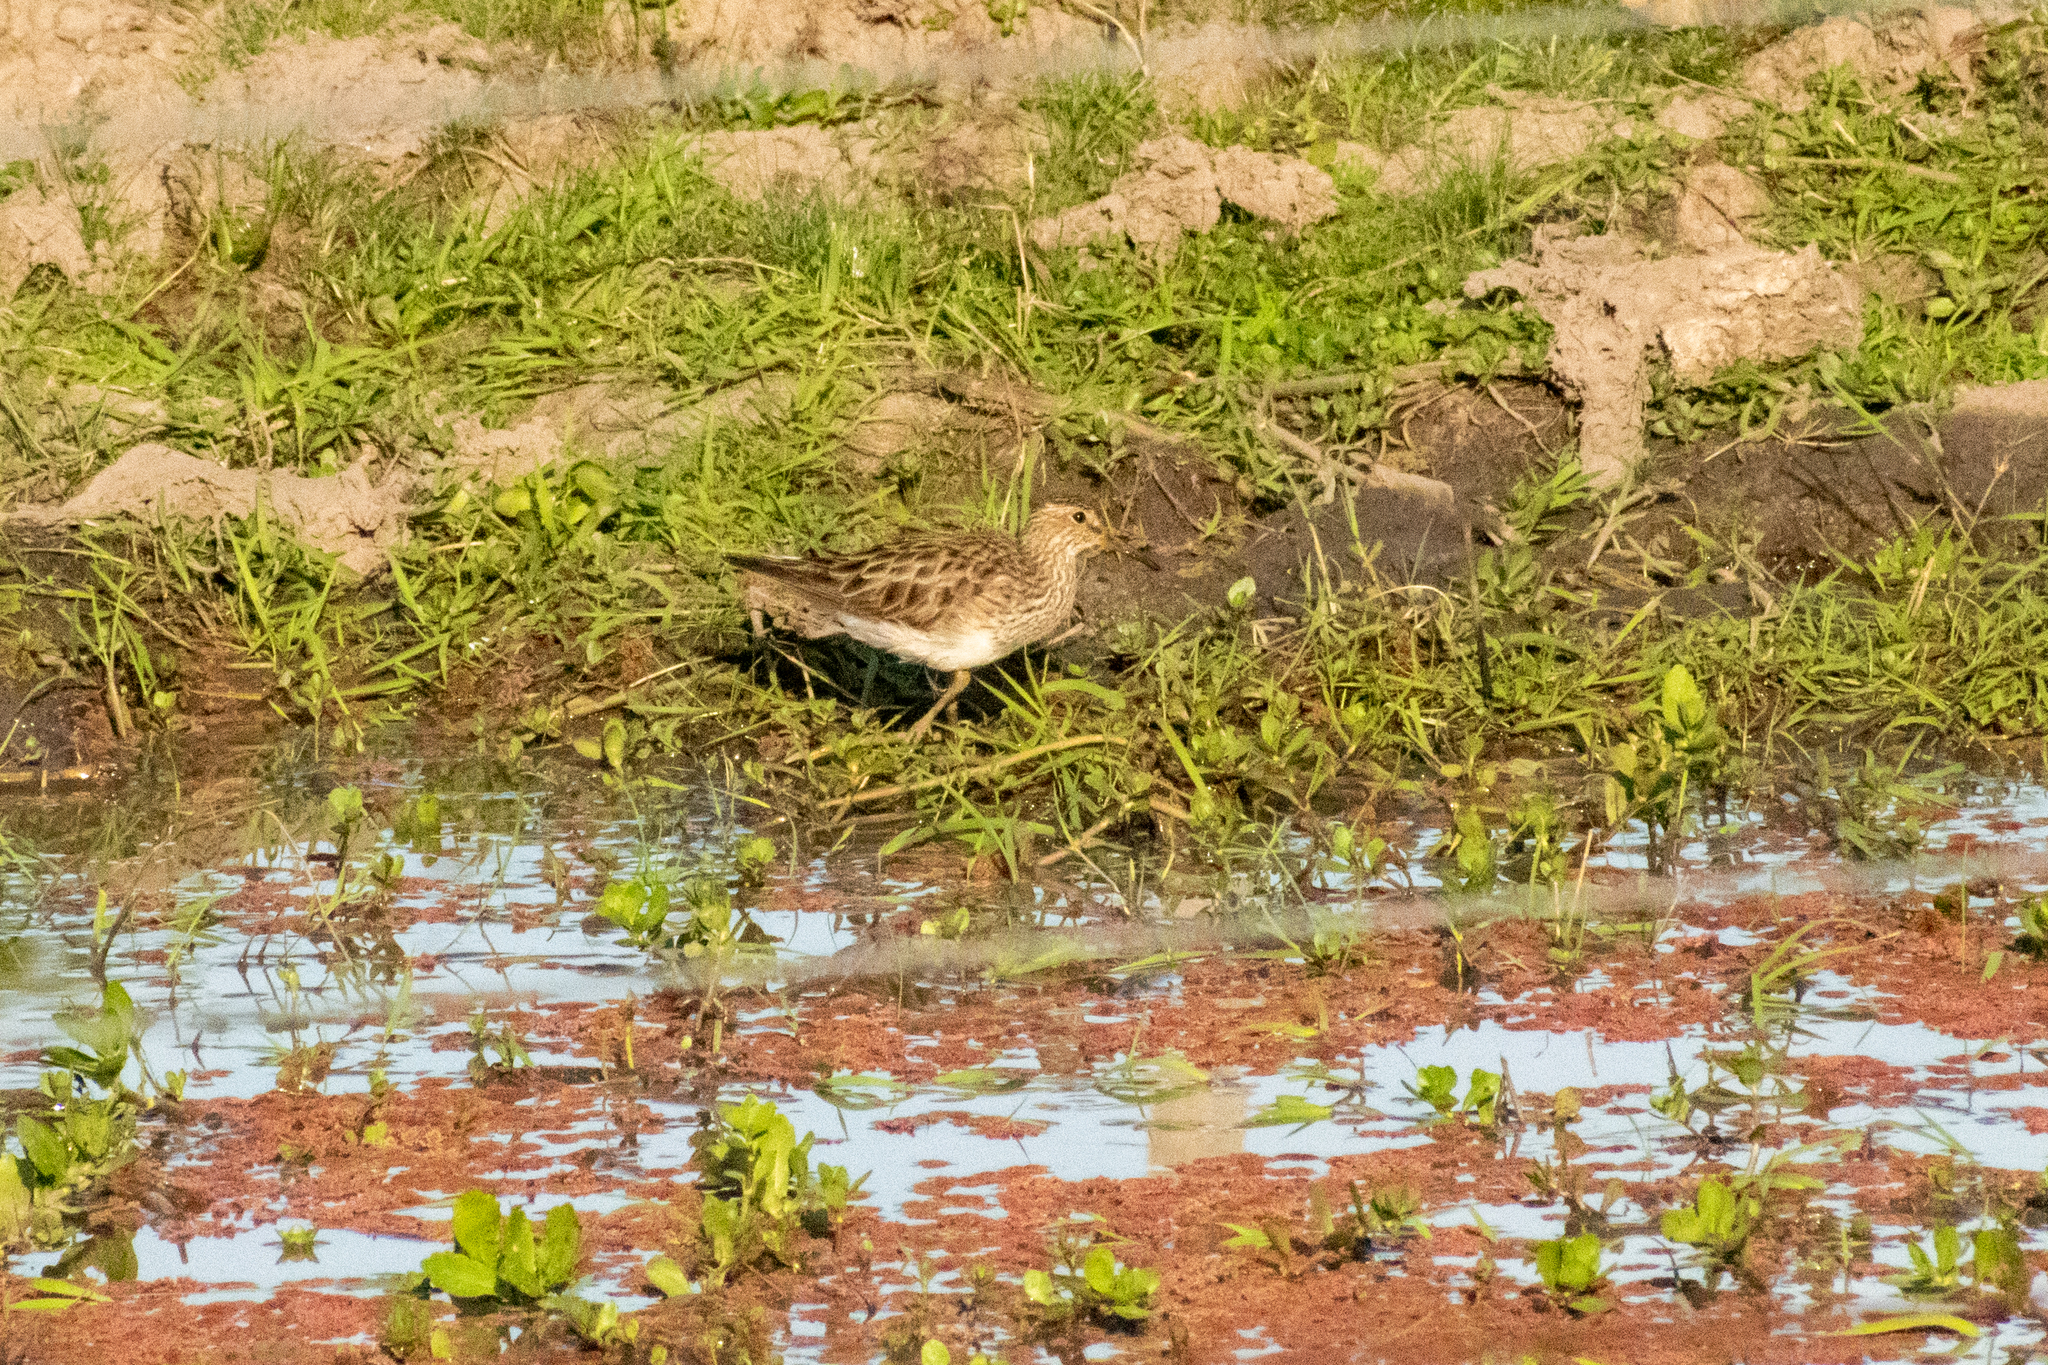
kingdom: Animalia
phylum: Chordata
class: Aves
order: Charadriiformes
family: Scolopacidae
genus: Calidris
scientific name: Calidris melanotos
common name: Pectoral sandpiper
